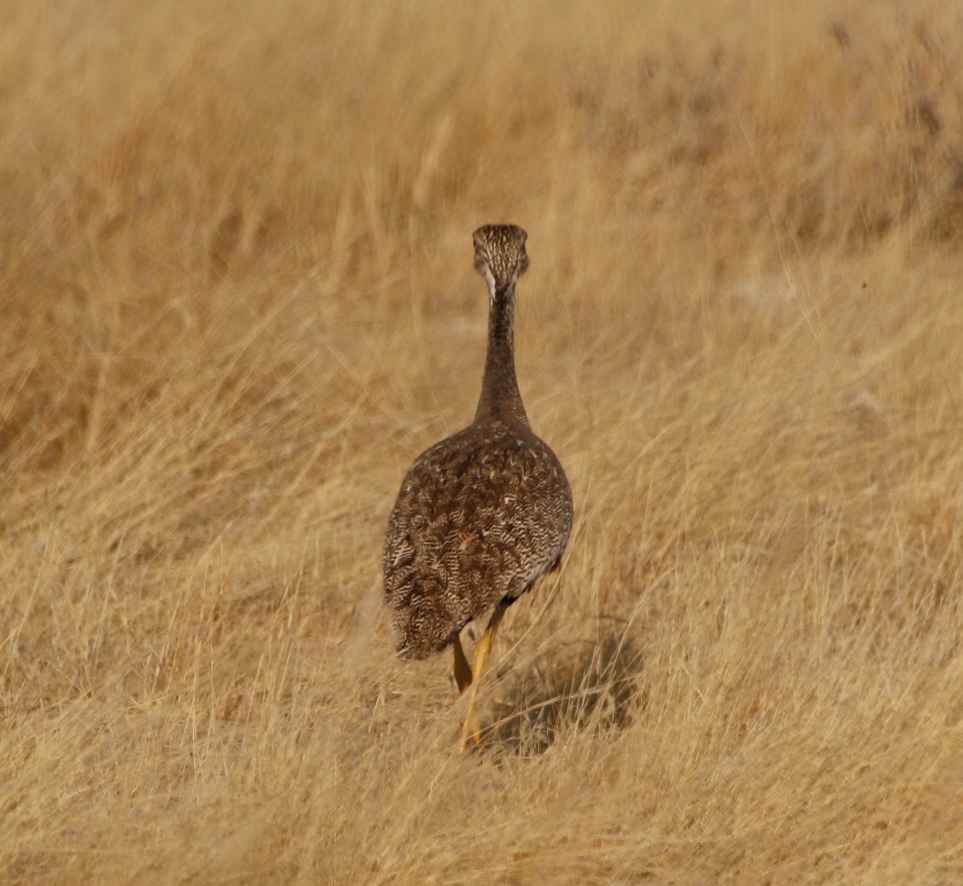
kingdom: Animalia
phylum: Chordata
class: Aves
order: Otidiformes
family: Otididae
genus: Afrotis
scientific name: Afrotis afraoides
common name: Northern black korhaan
